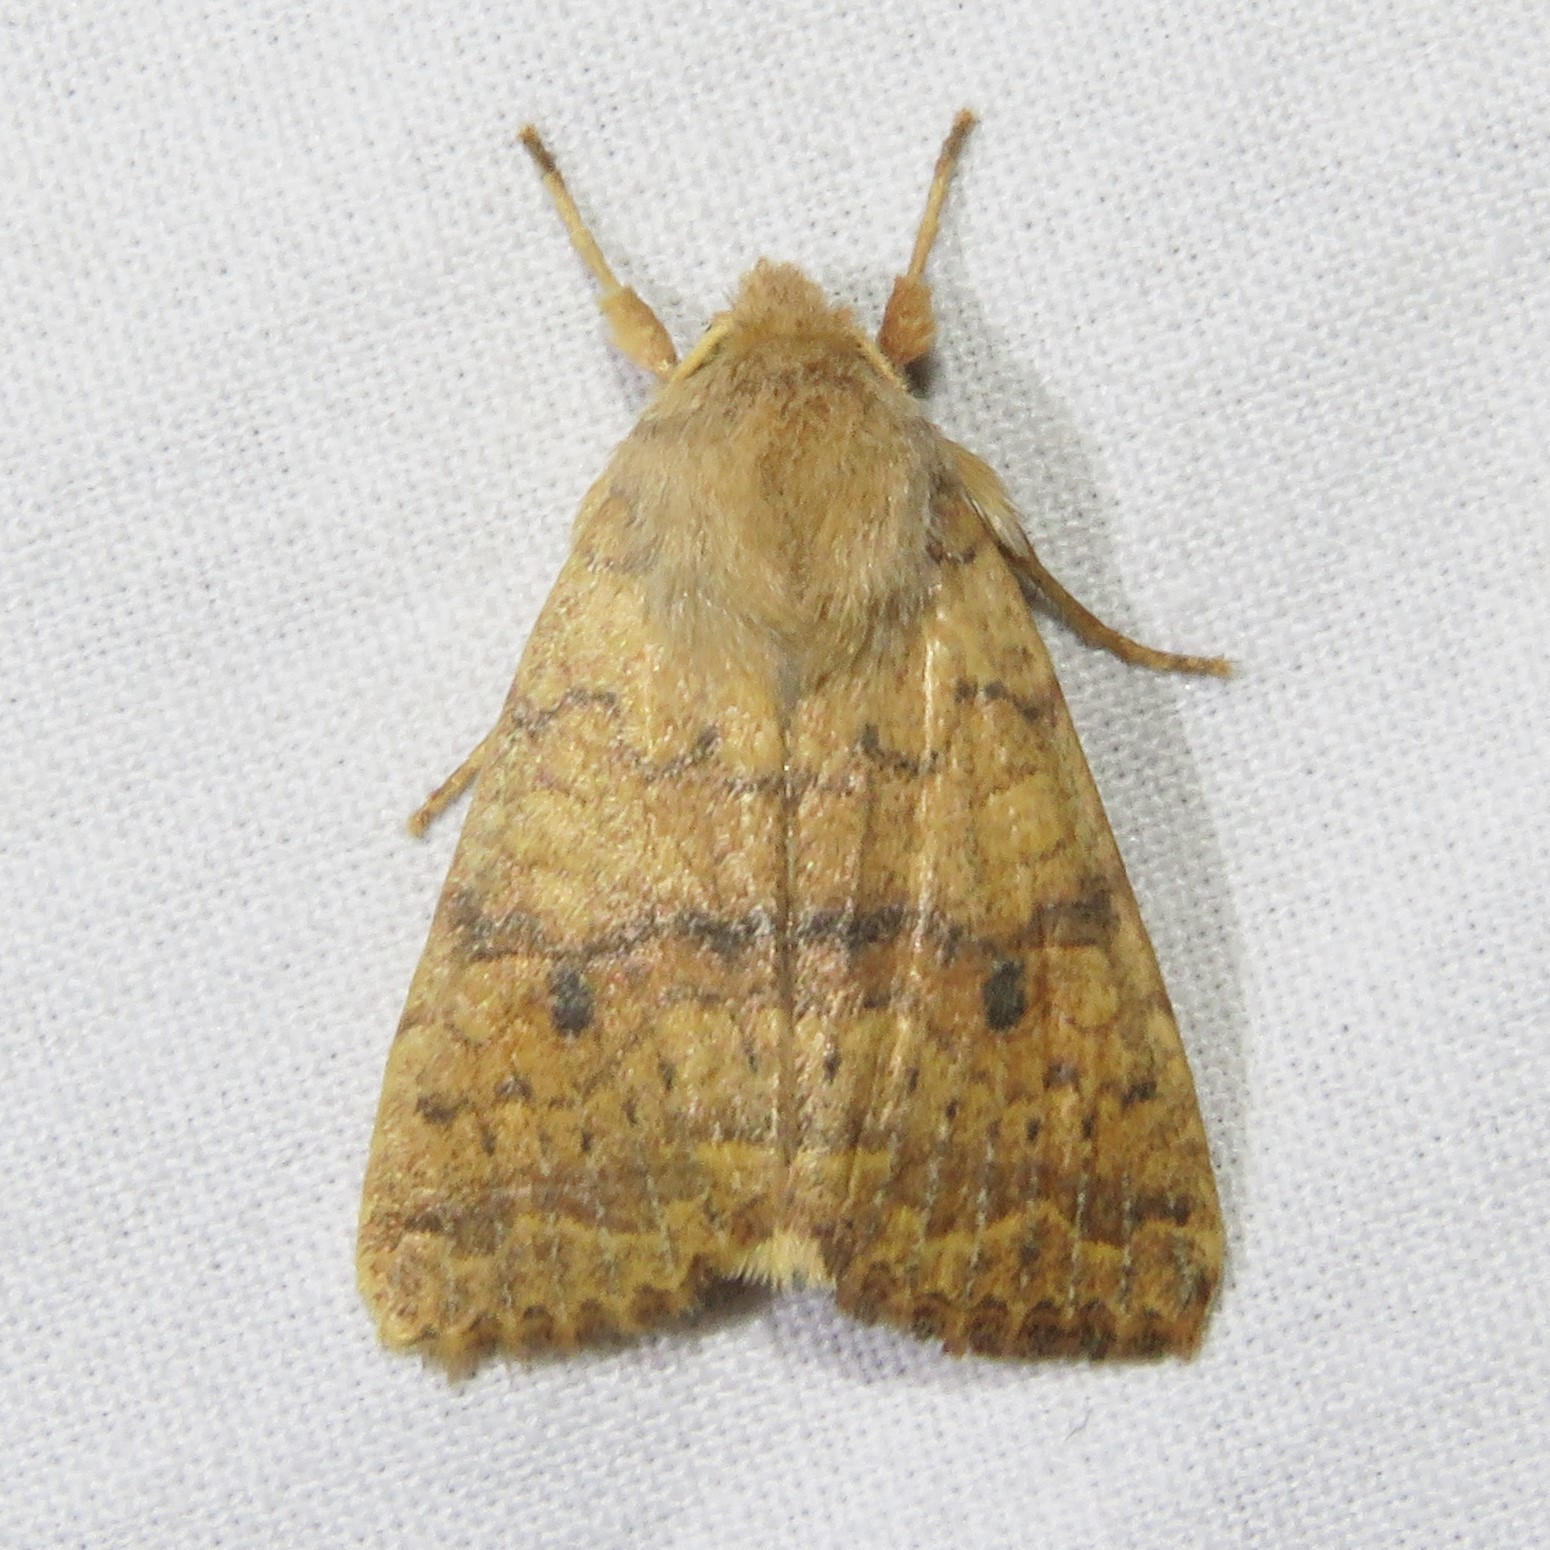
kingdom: Animalia
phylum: Arthropoda
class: Insecta
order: Lepidoptera
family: Noctuidae
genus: Agrochola
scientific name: Agrochola bicolorago
